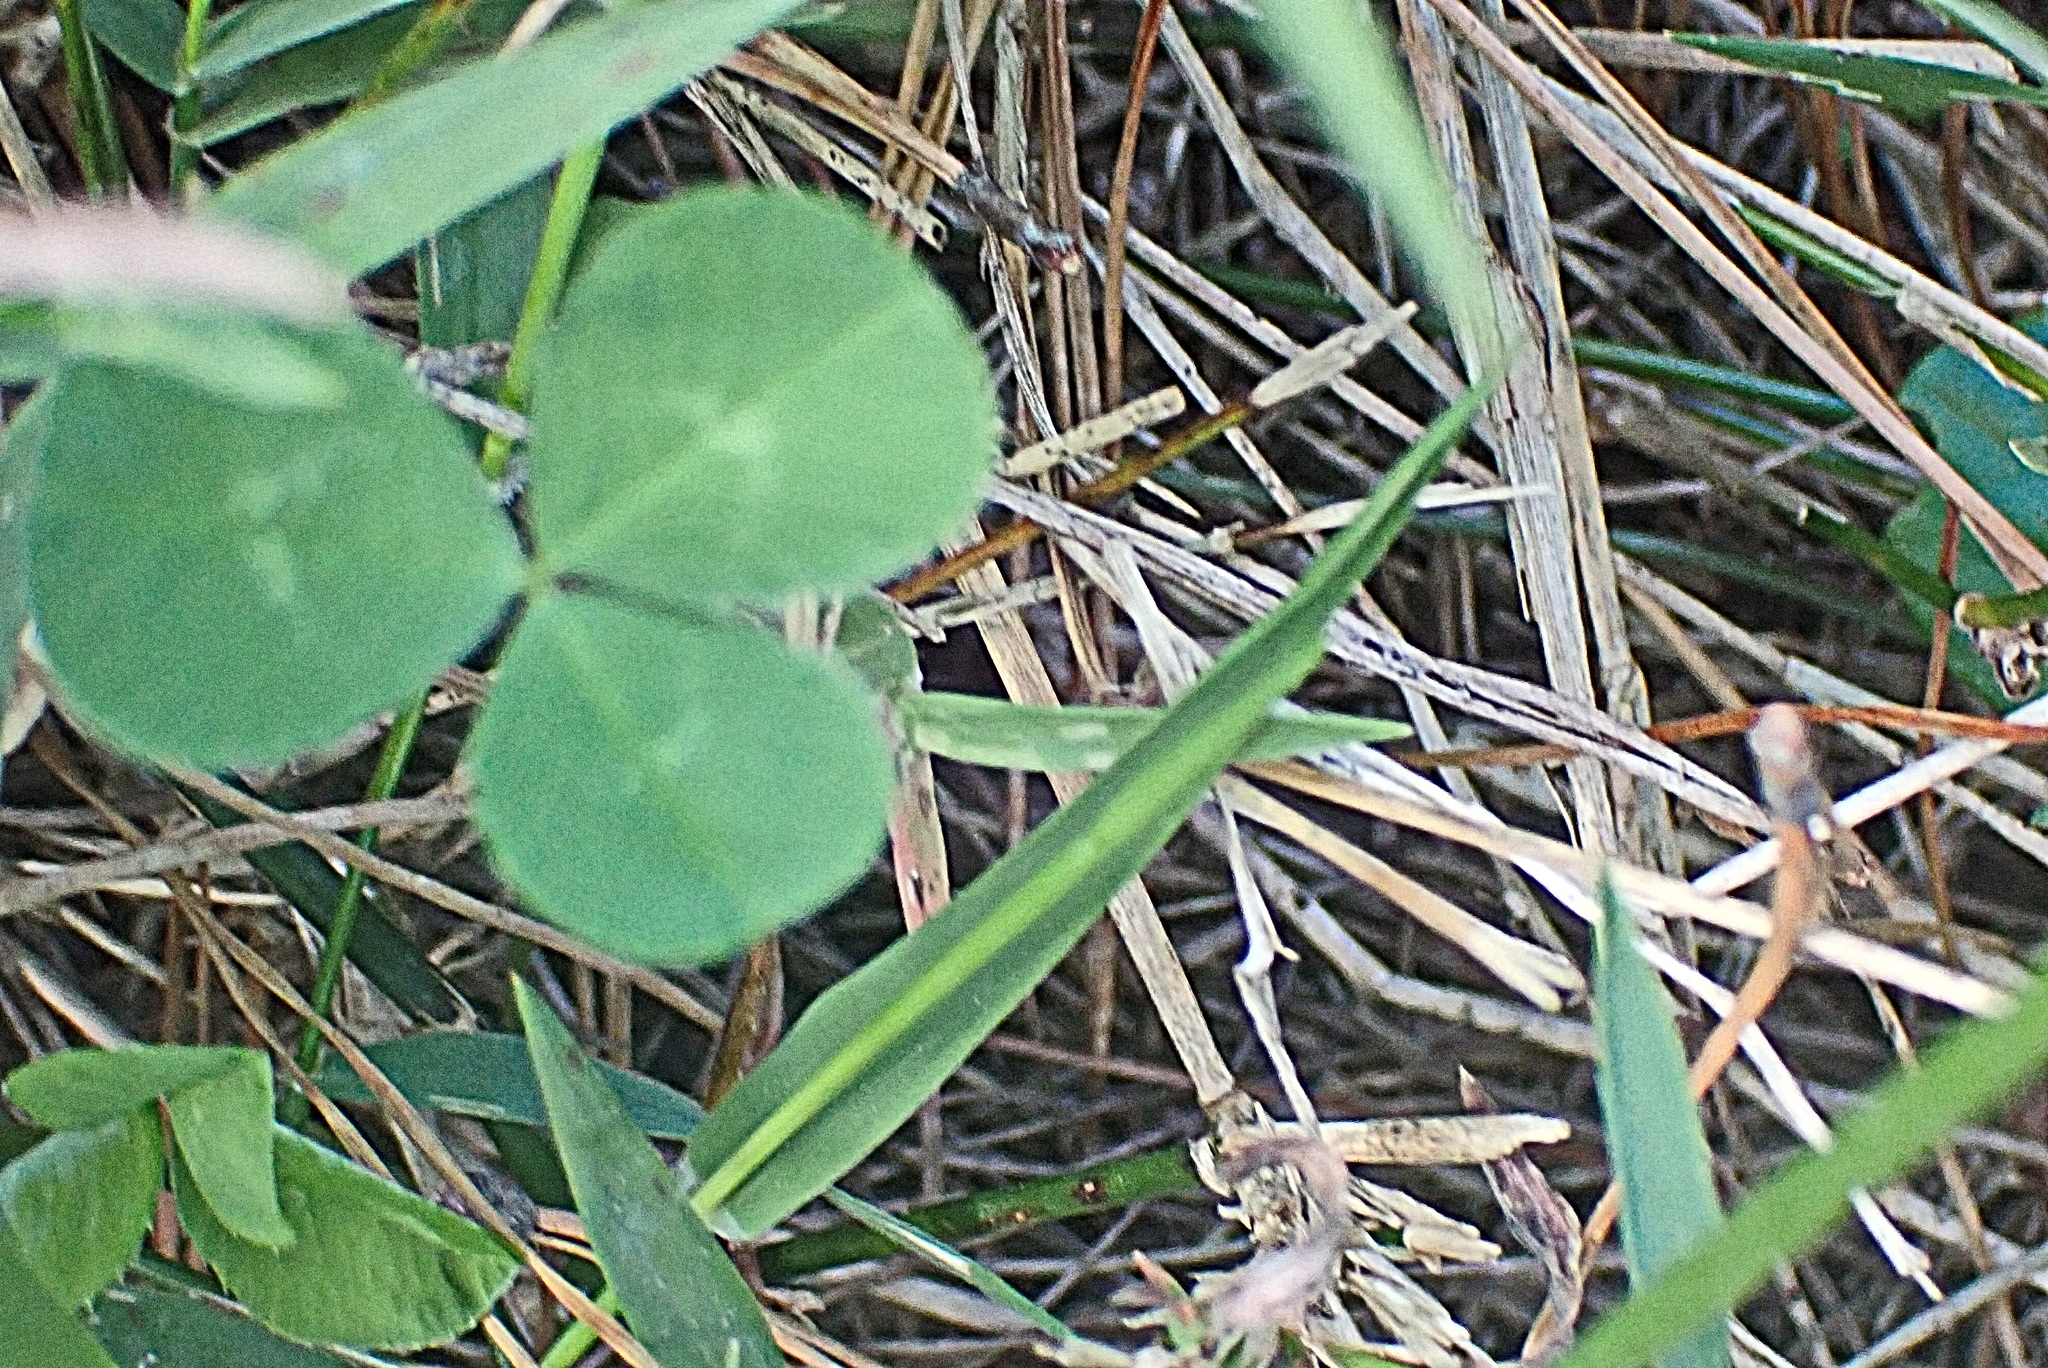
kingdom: Plantae
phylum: Tracheophyta
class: Magnoliopsida
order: Fabales
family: Fabaceae
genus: Trifolium
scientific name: Trifolium repens
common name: White clover
